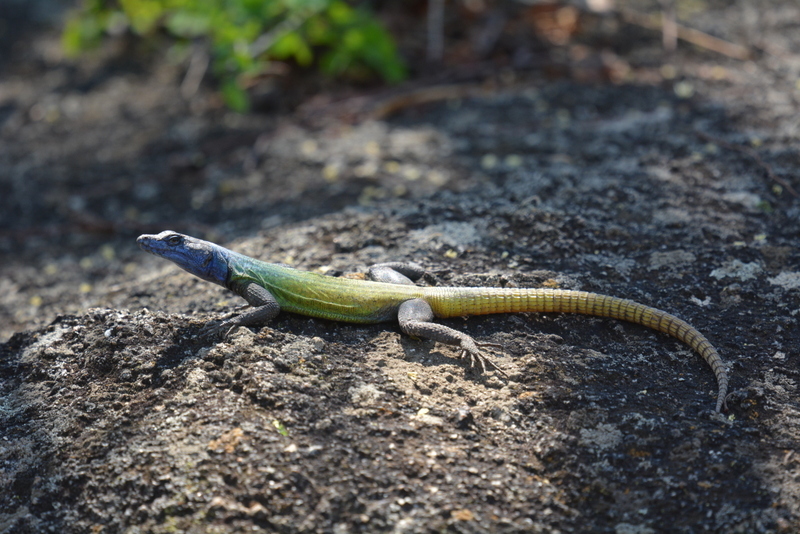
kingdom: Animalia
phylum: Chordata
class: Squamata
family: Cordylidae
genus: Platysaurus
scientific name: Platysaurus intermedius
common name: Common flat lizard
